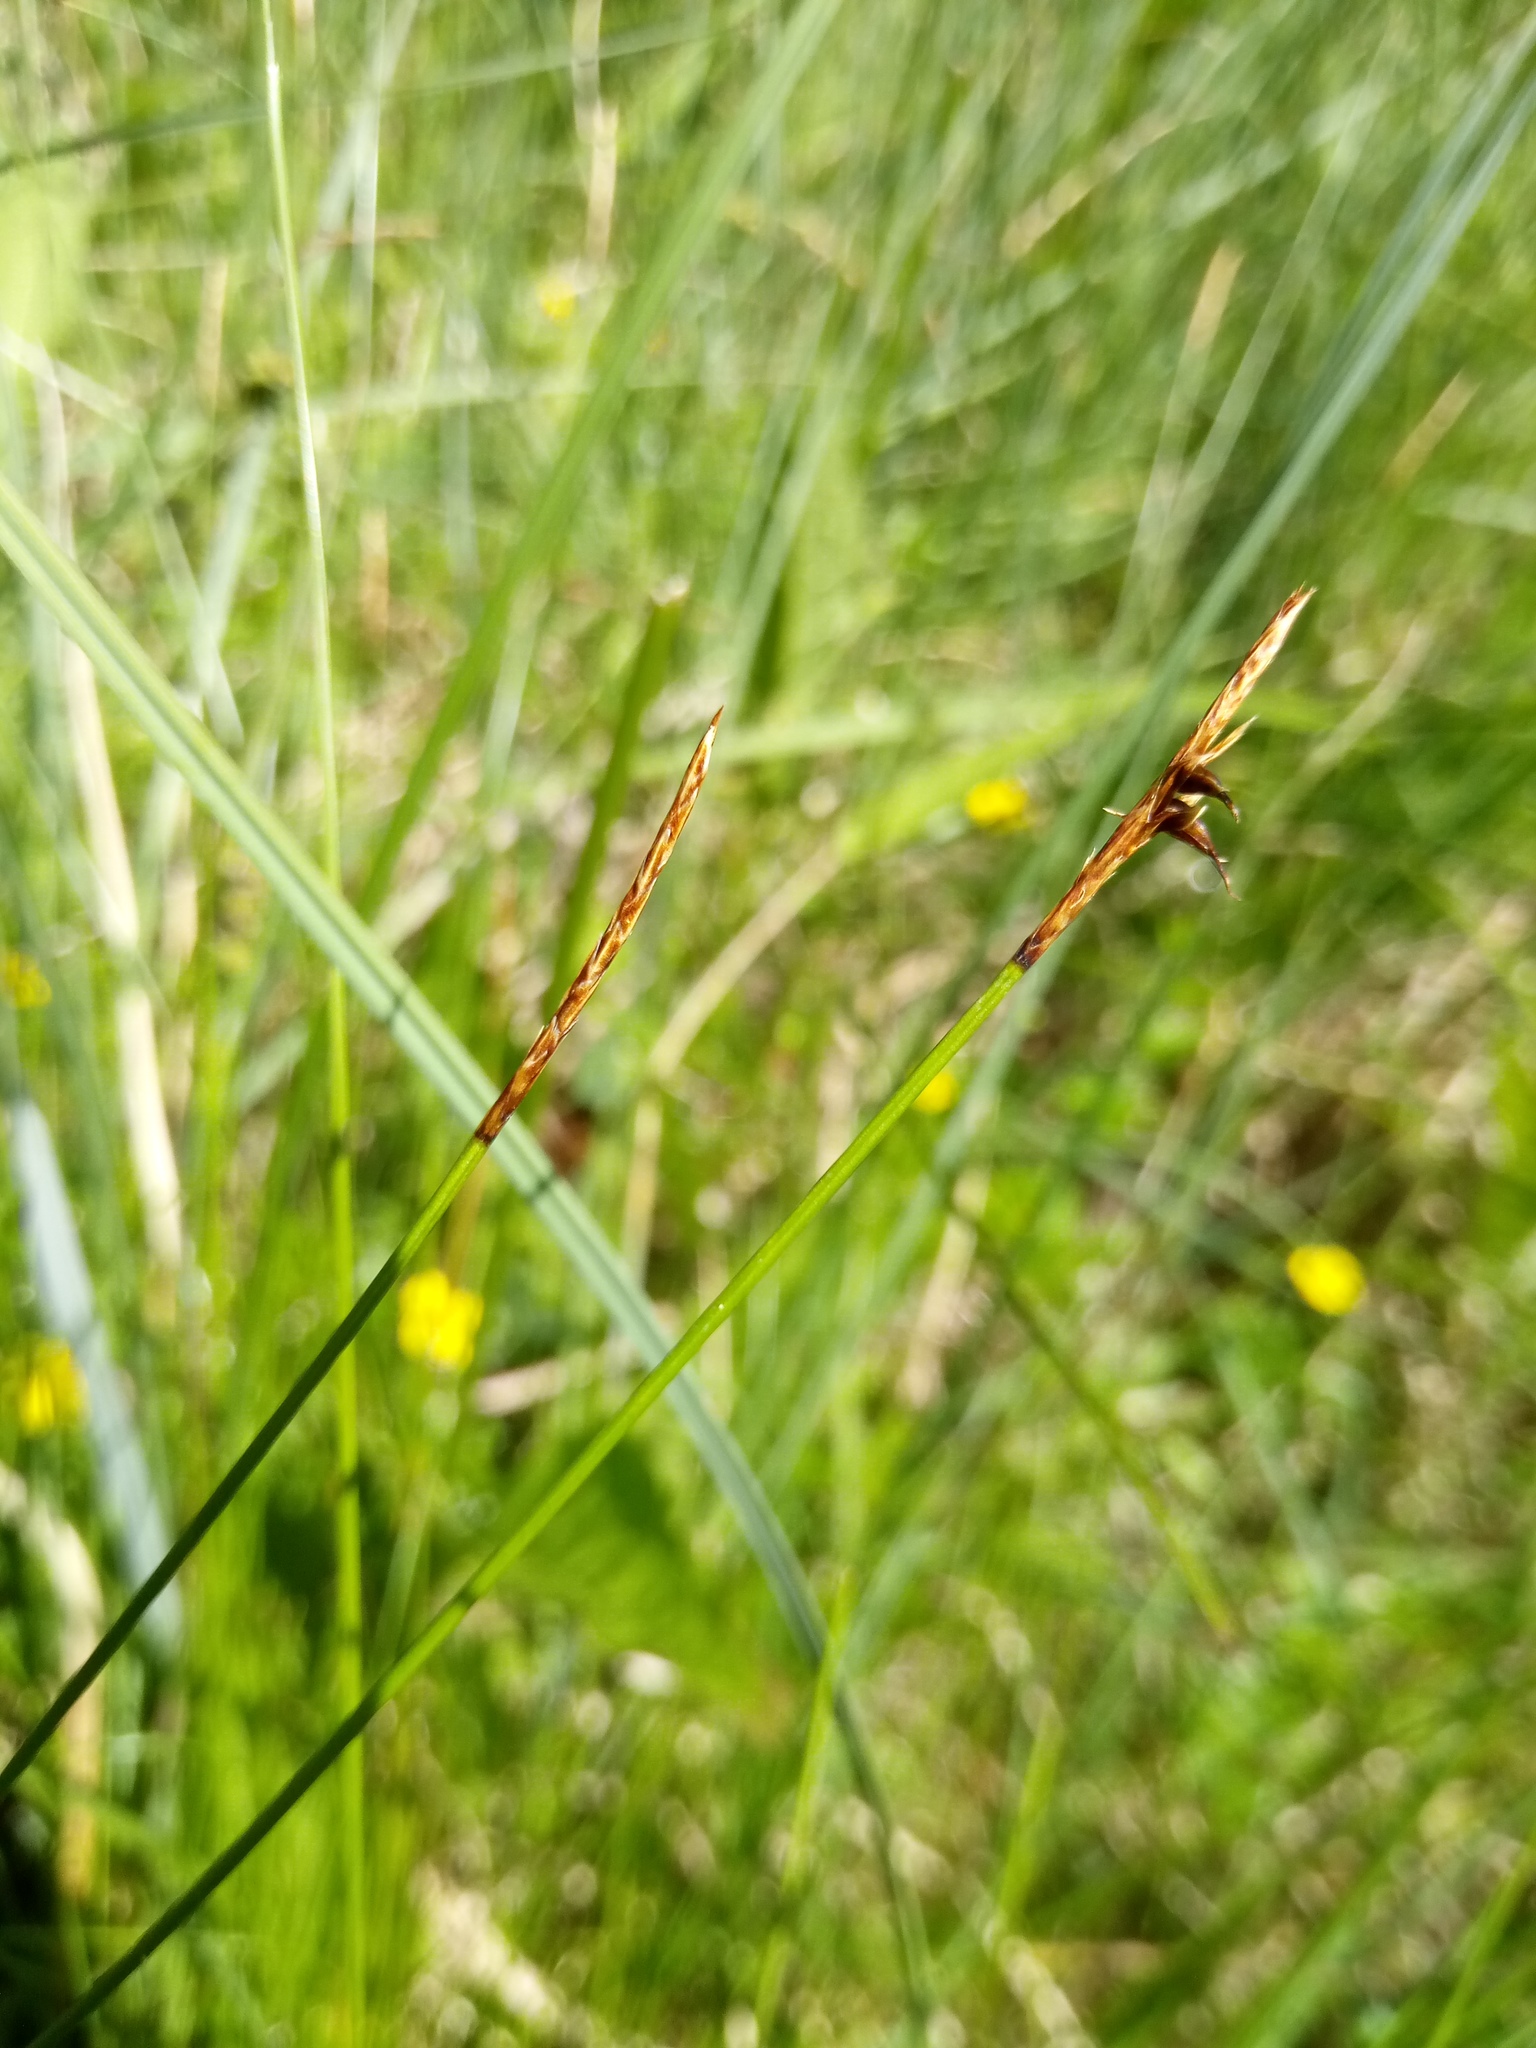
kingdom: Plantae
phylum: Tracheophyta
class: Liliopsida
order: Poales
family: Cyperaceae
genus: Carex
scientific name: Carex davalliana
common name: Davall's sedge
